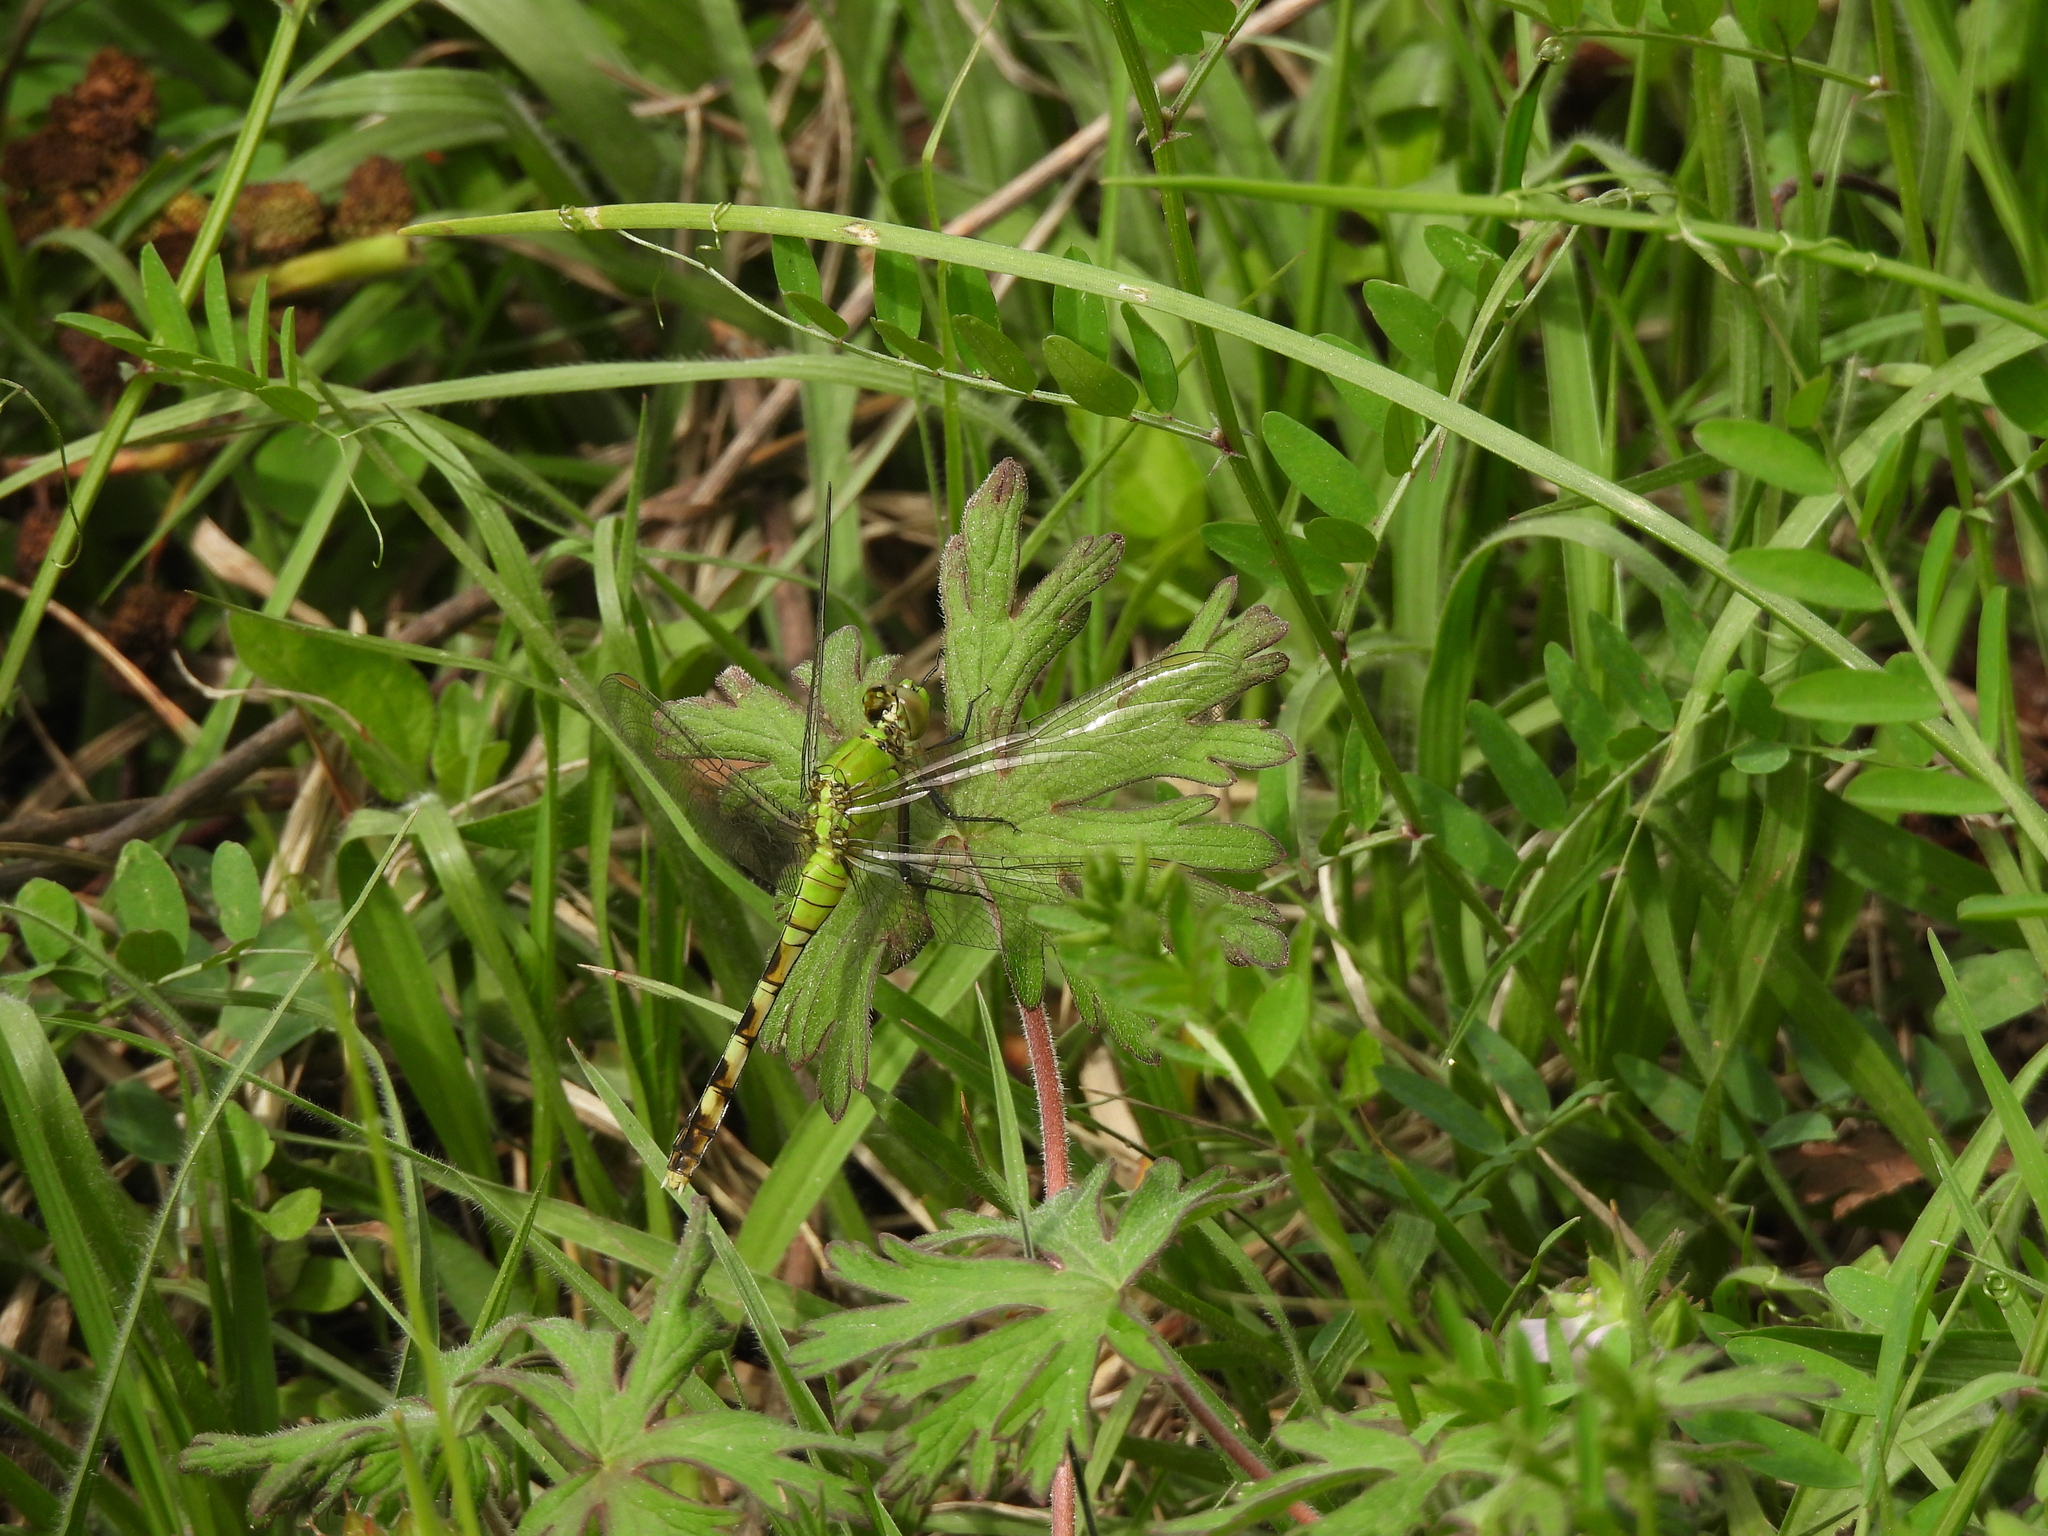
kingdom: Animalia
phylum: Arthropoda
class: Insecta
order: Odonata
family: Libellulidae
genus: Erythemis
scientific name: Erythemis simplicicollis
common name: Eastern pondhawk
